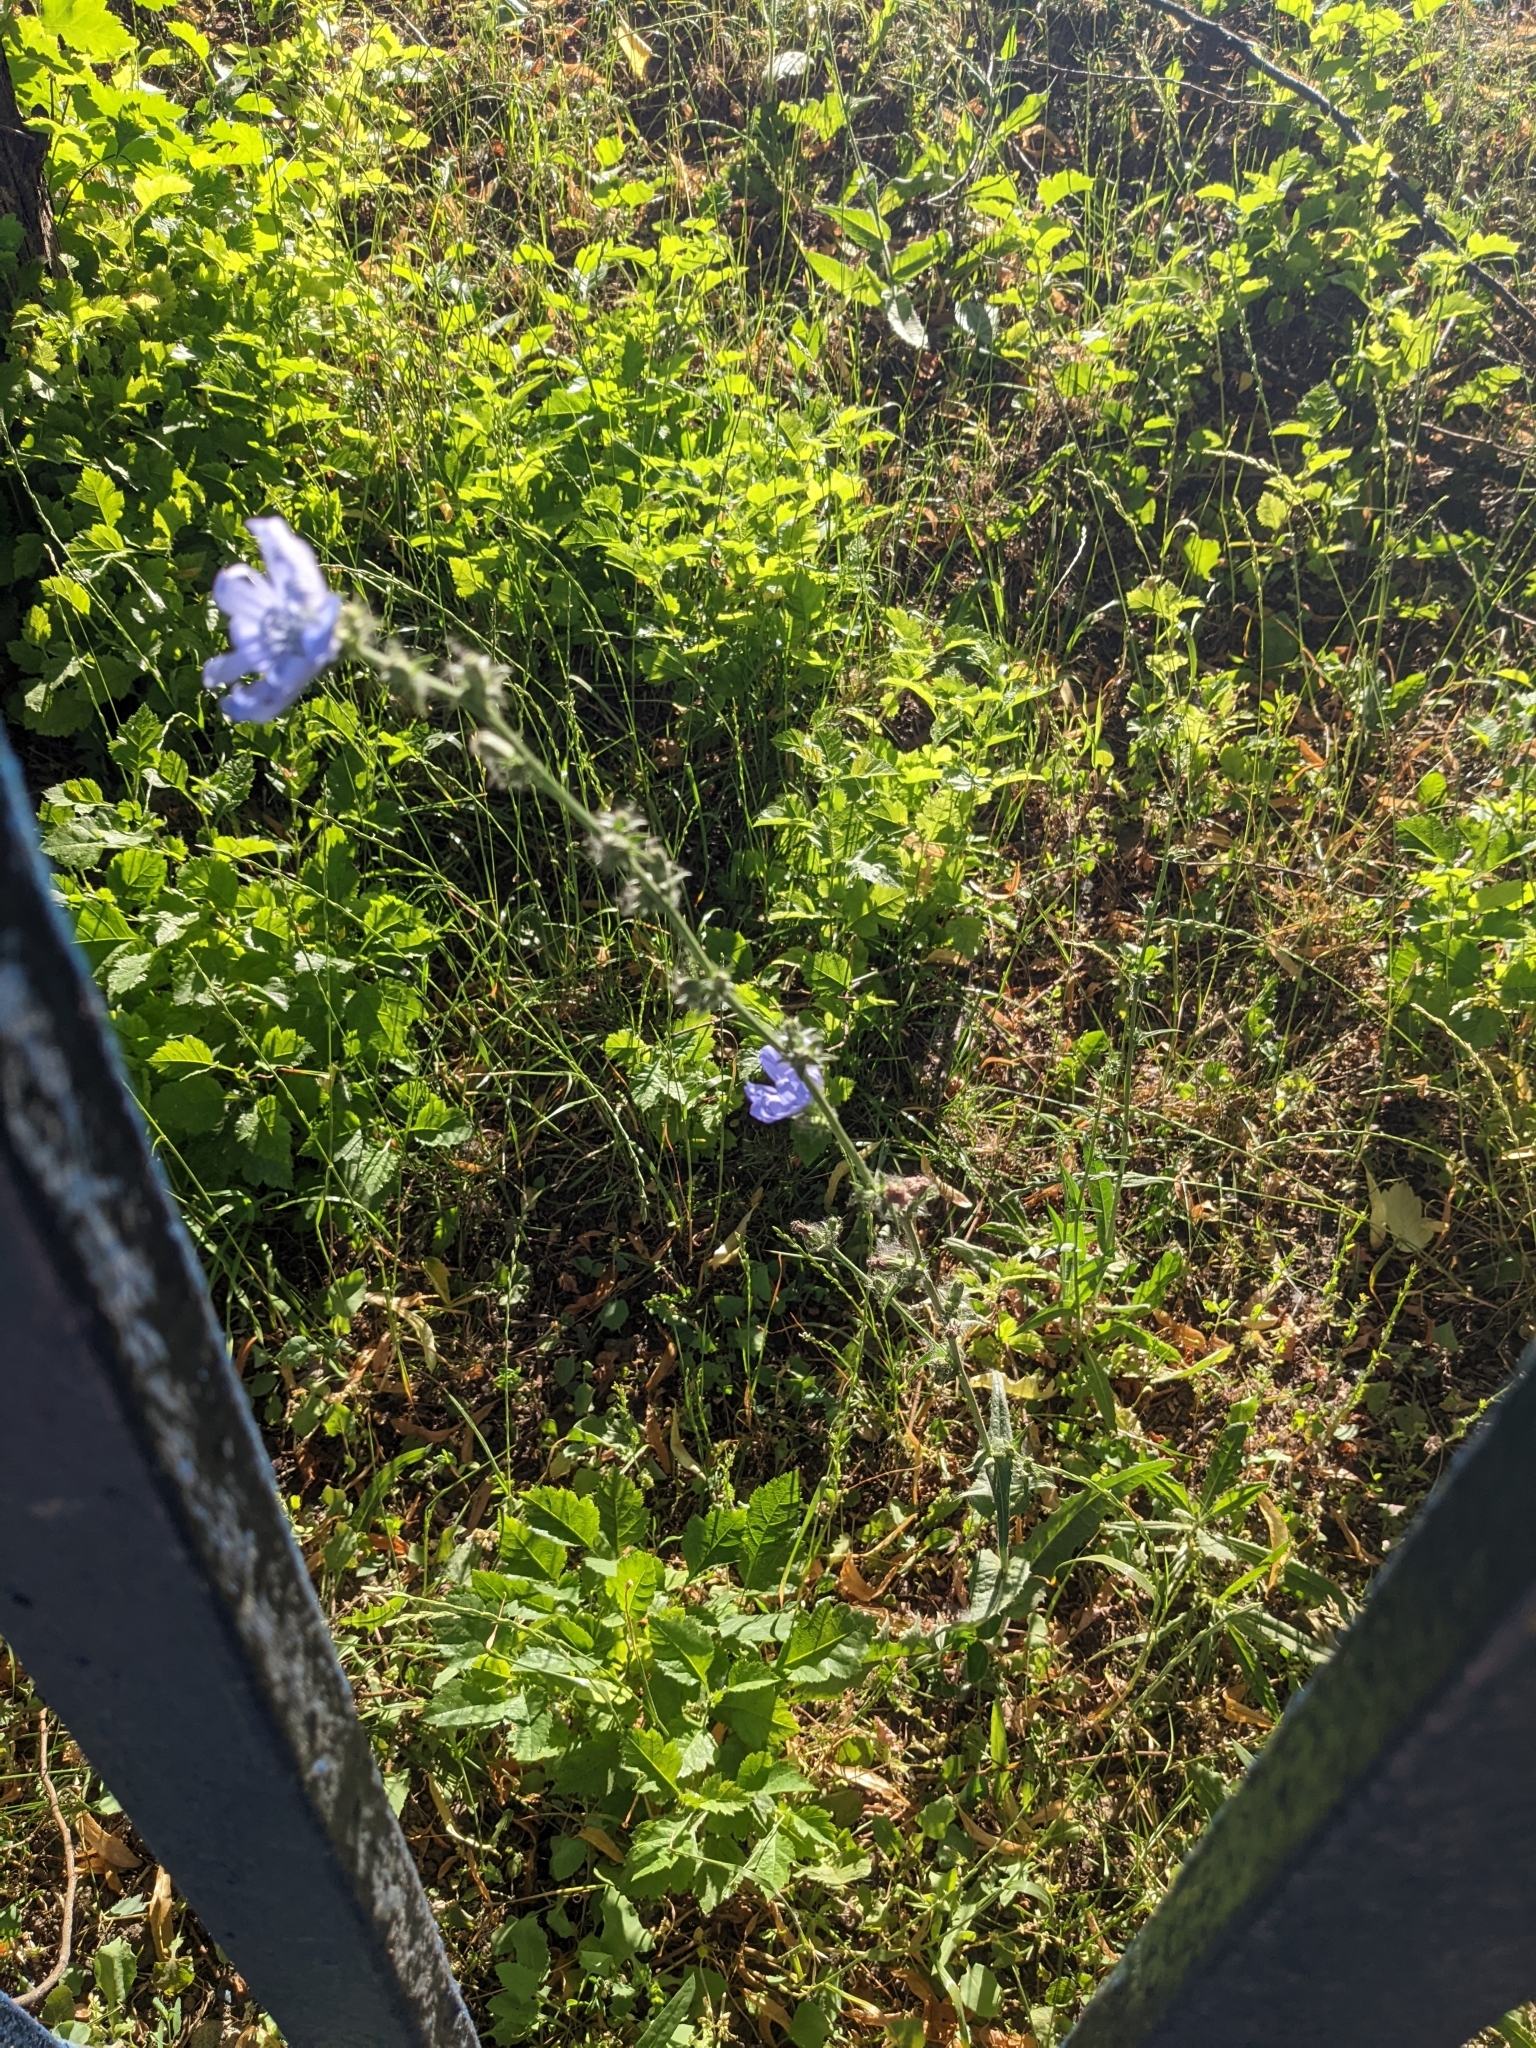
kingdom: Plantae
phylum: Tracheophyta
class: Magnoliopsida
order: Asterales
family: Asteraceae
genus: Cichorium
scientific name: Cichorium intybus
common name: Chicory
